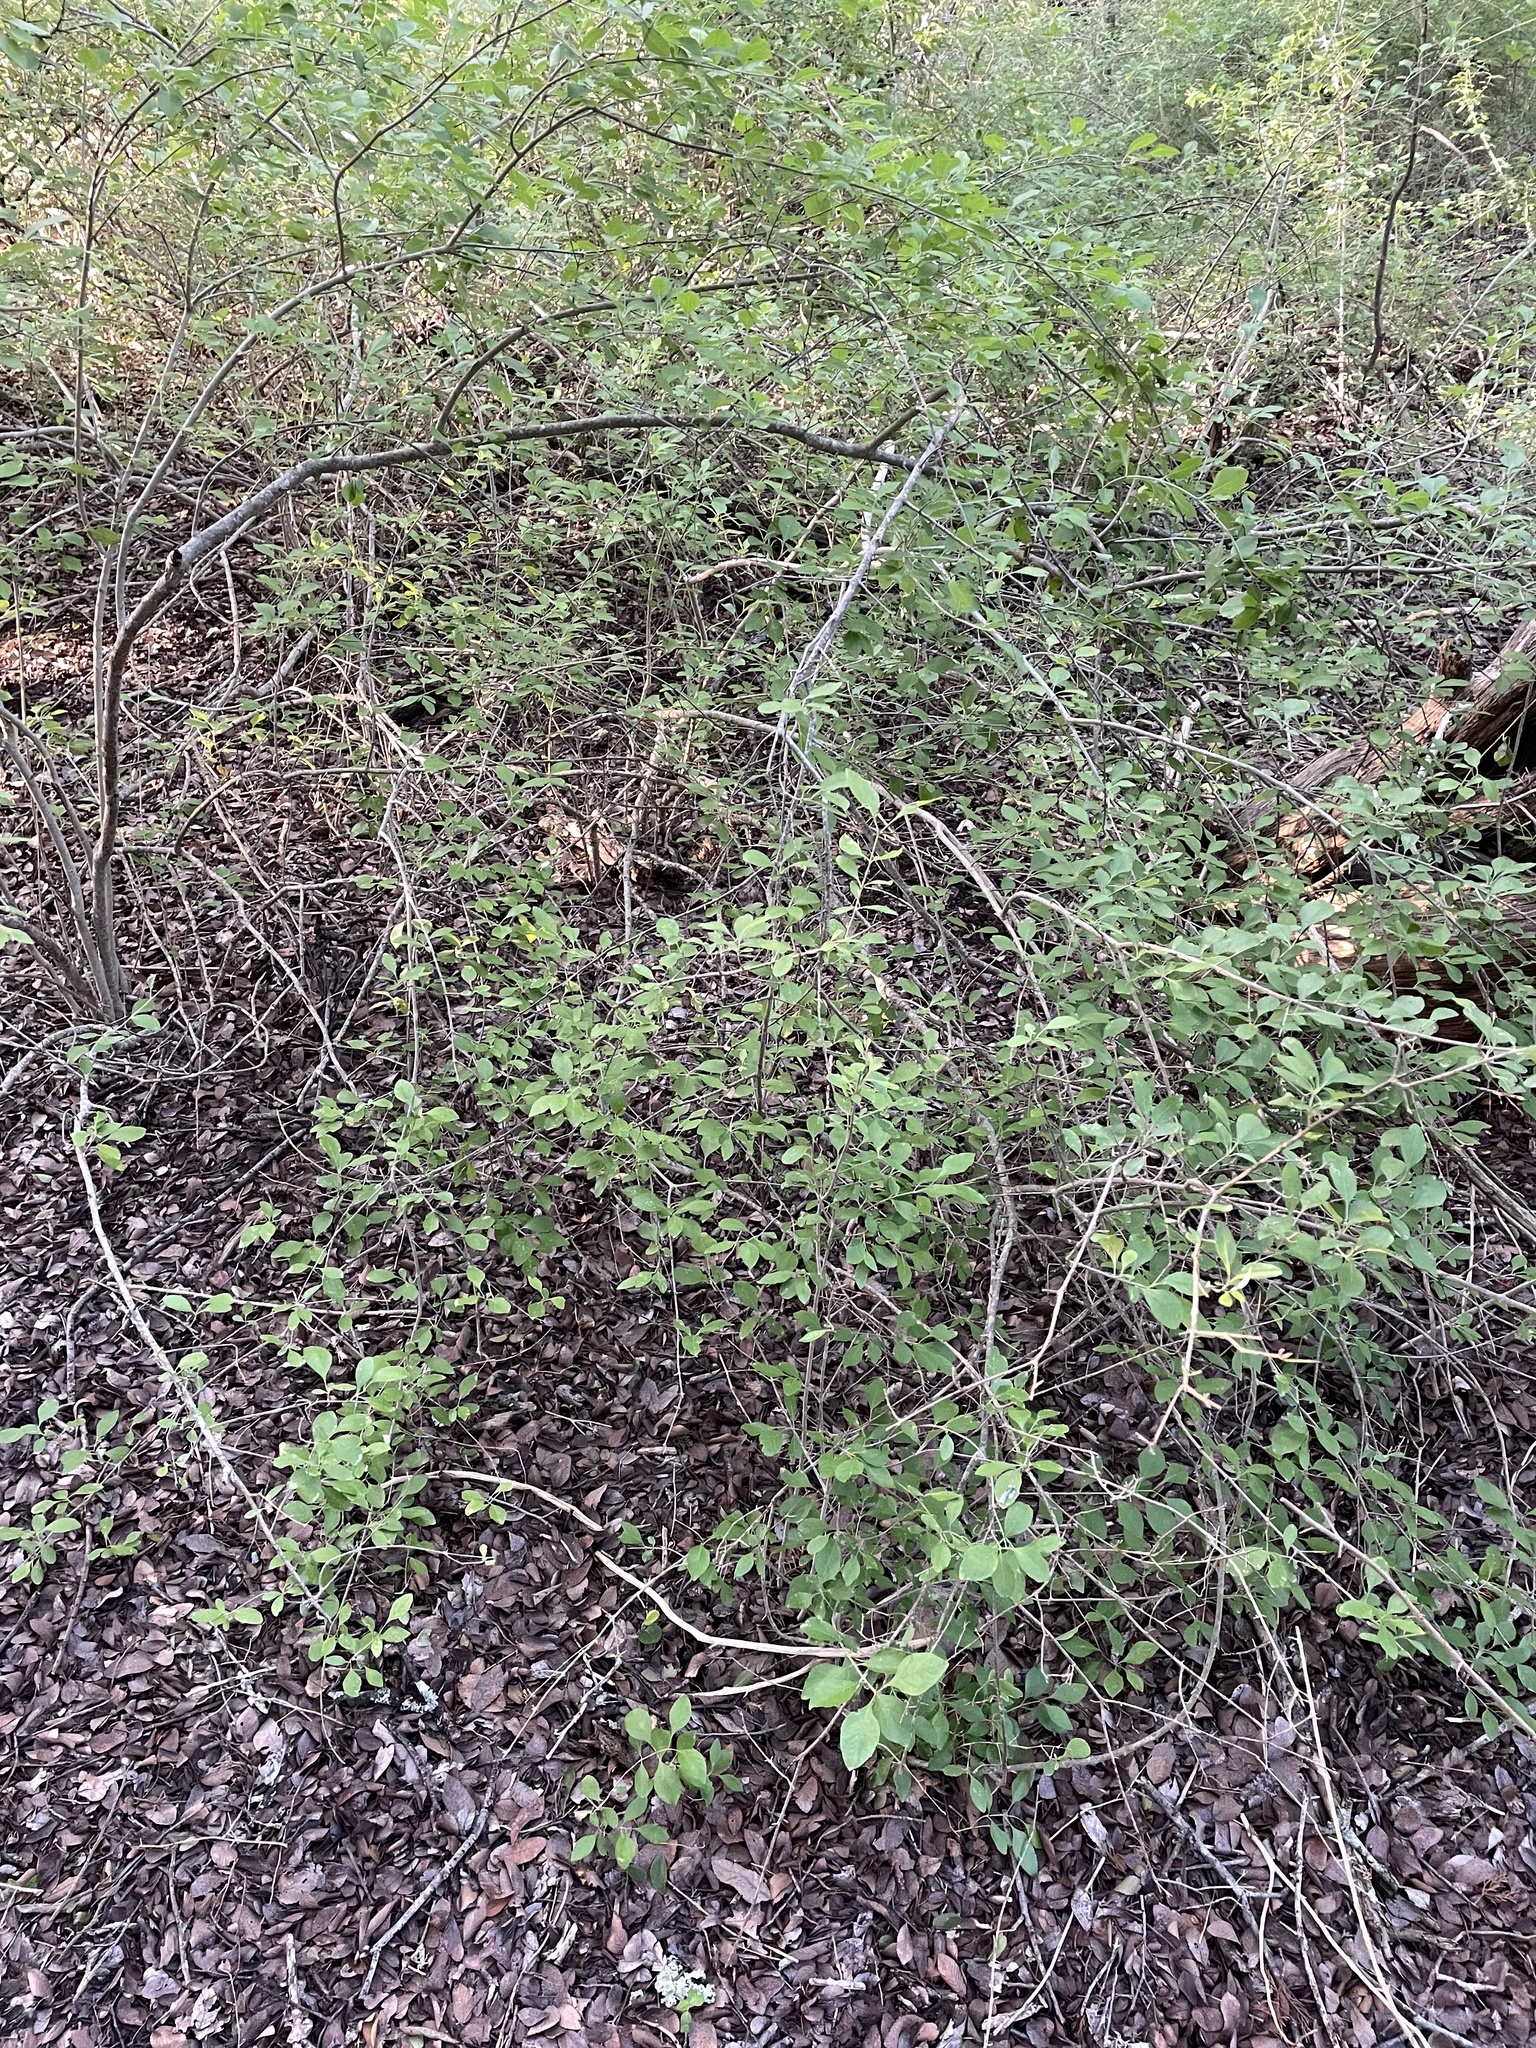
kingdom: Plantae
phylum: Tracheophyta
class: Magnoliopsida
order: Lamiales
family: Oleaceae
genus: Forestiera
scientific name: Forestiera pubescens
